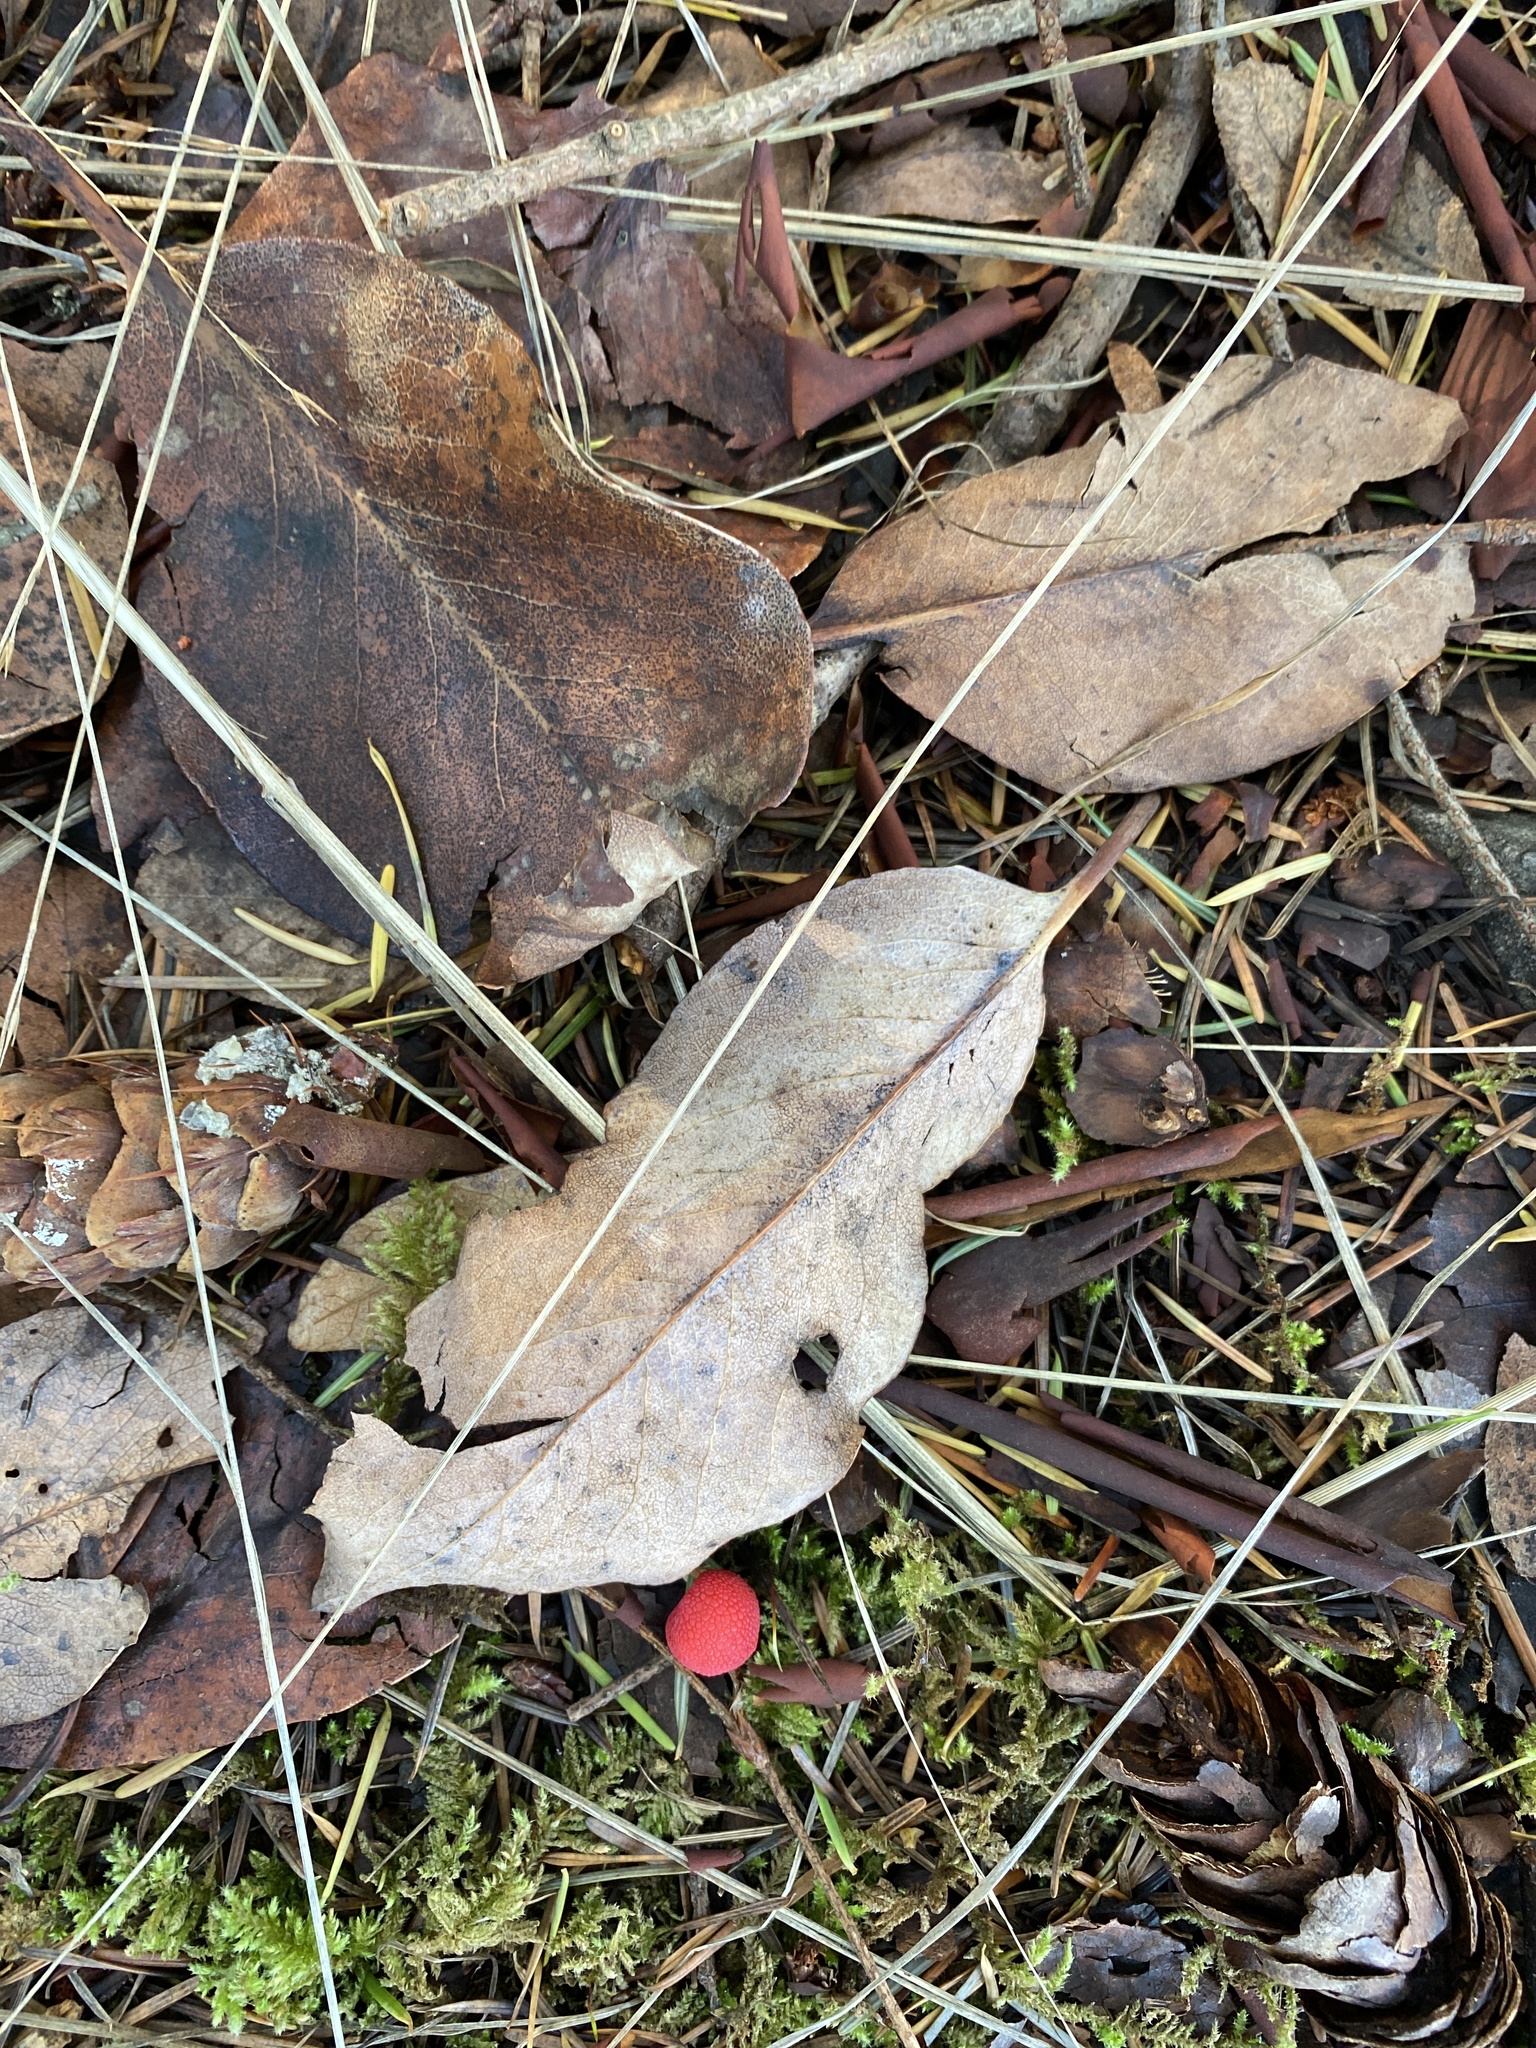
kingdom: Plantae
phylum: Tracheophyta
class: Magnoliopsida
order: Ericales
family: Ericaceae
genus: Arbutus
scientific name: Arbutus menziesii
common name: Pacific madrone
